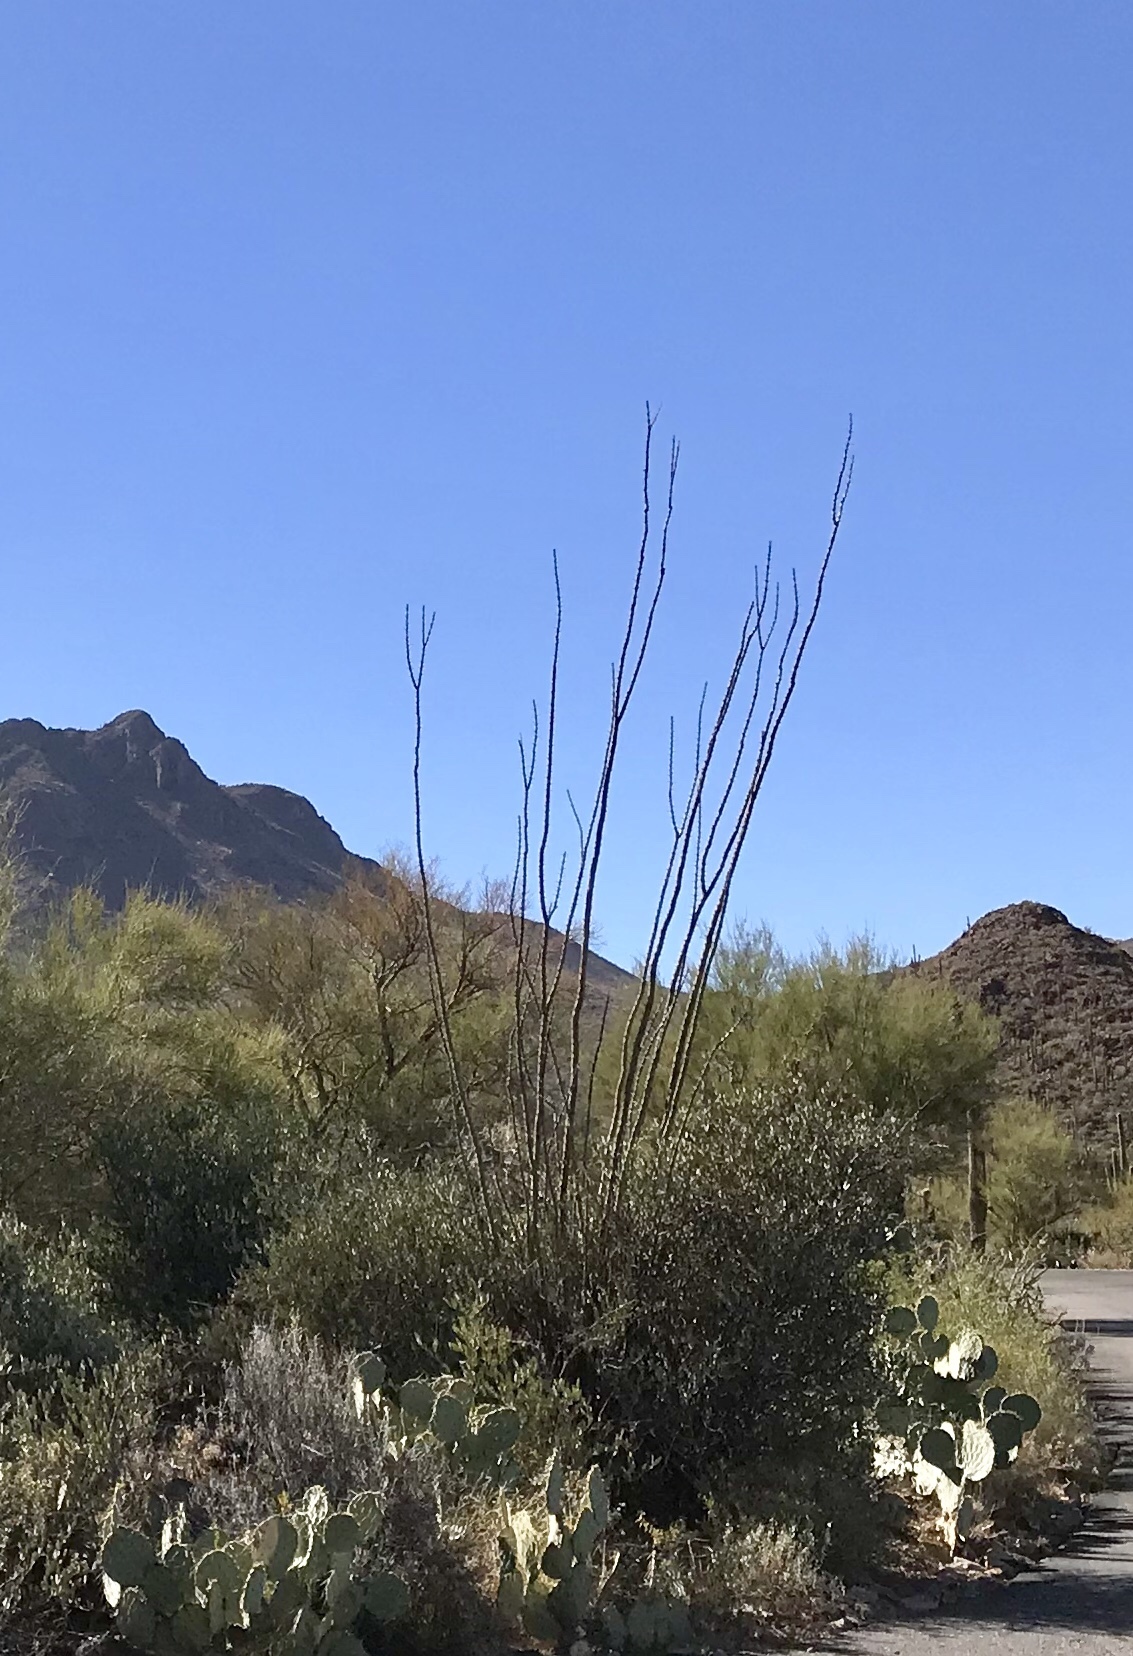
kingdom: Plantae
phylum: Tracheophyta
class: Magnoliopsida
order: Ericales
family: Fouquieriaceae
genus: Fouquieria
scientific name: Fouquieria splendens
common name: Vine-cactus
